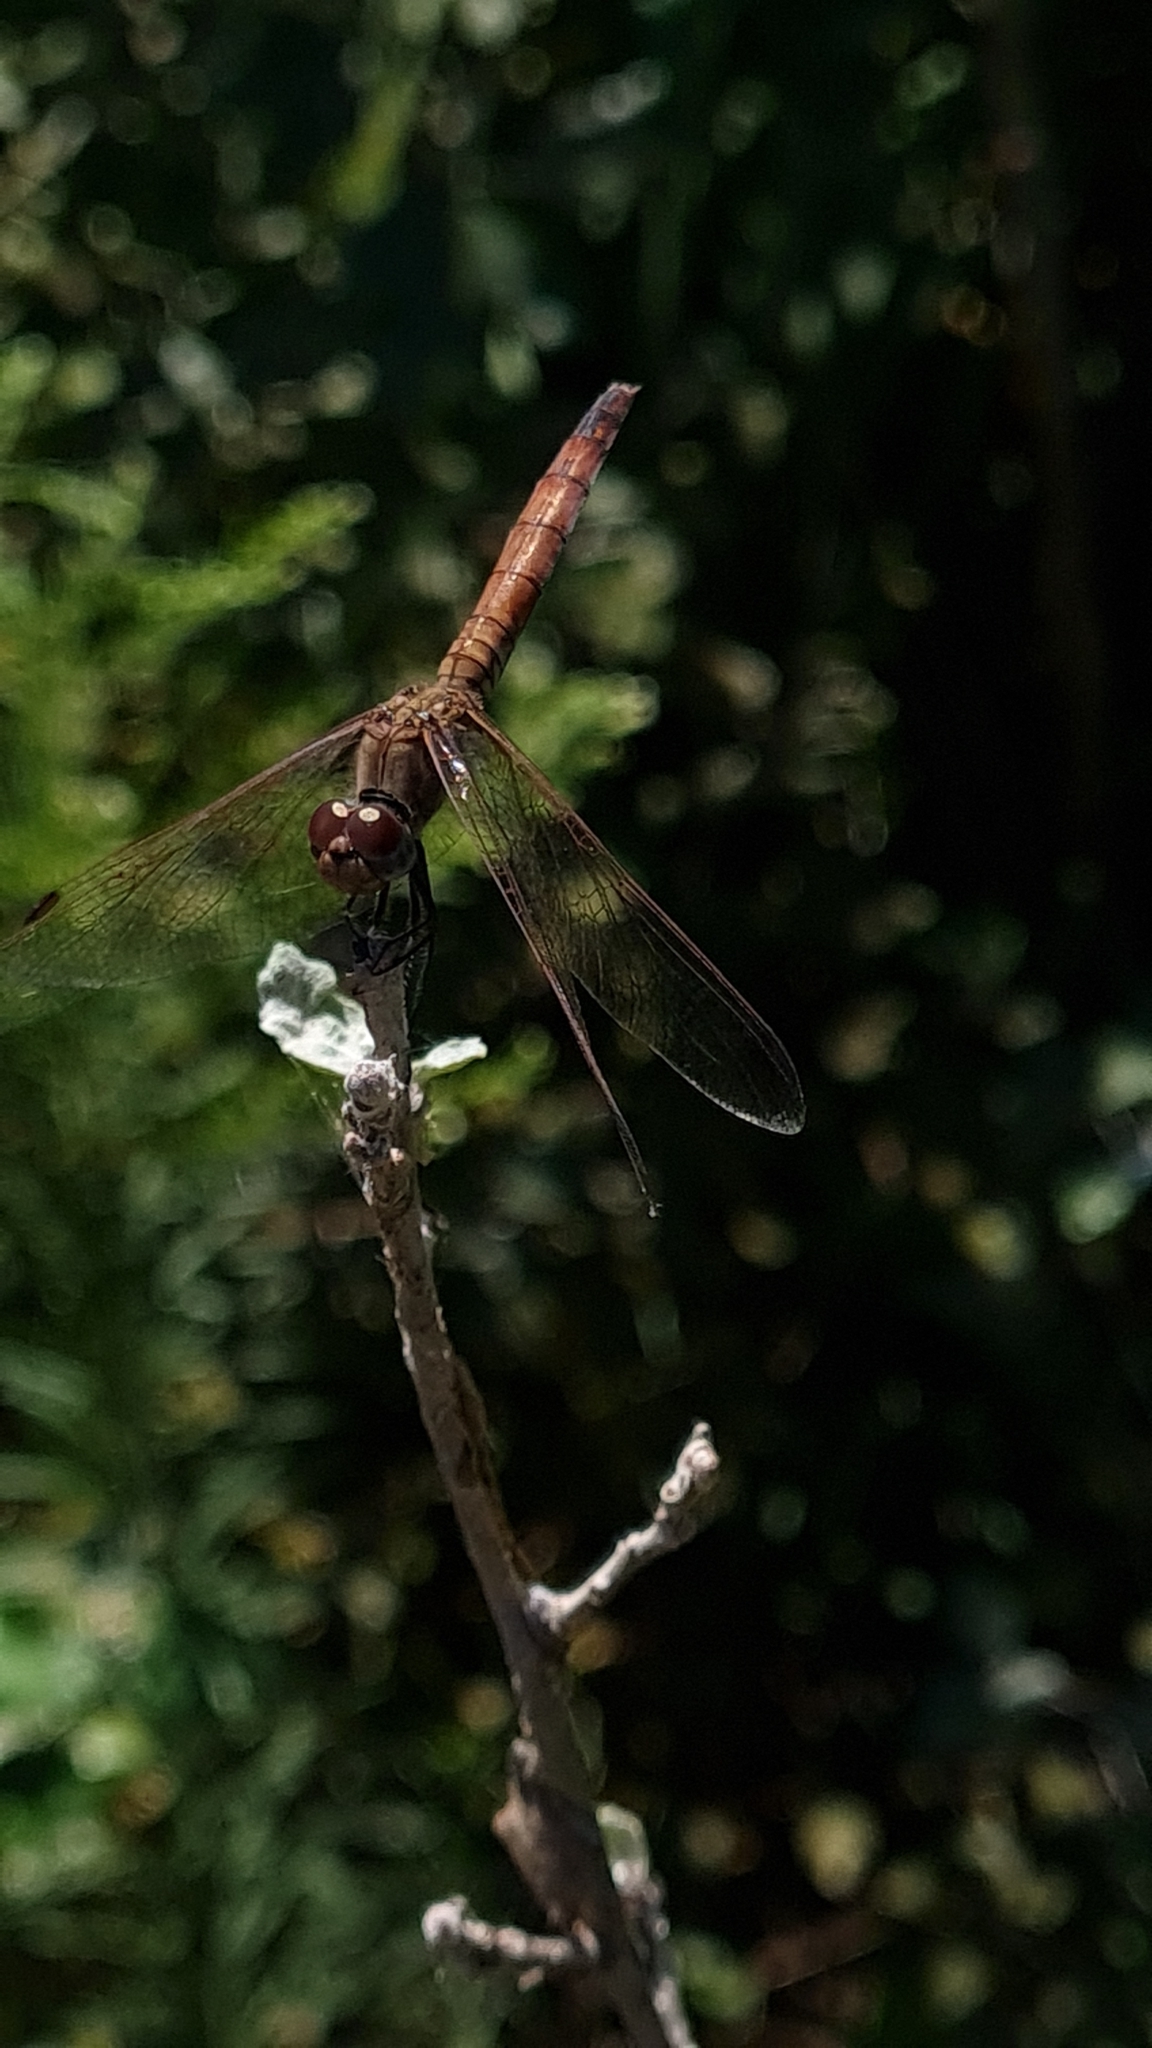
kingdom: Animalia
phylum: Arthropoda
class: Insecta
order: Odonata
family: Libellulidae
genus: Trithemis
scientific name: Trithemis annulata
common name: Violet dropwing
